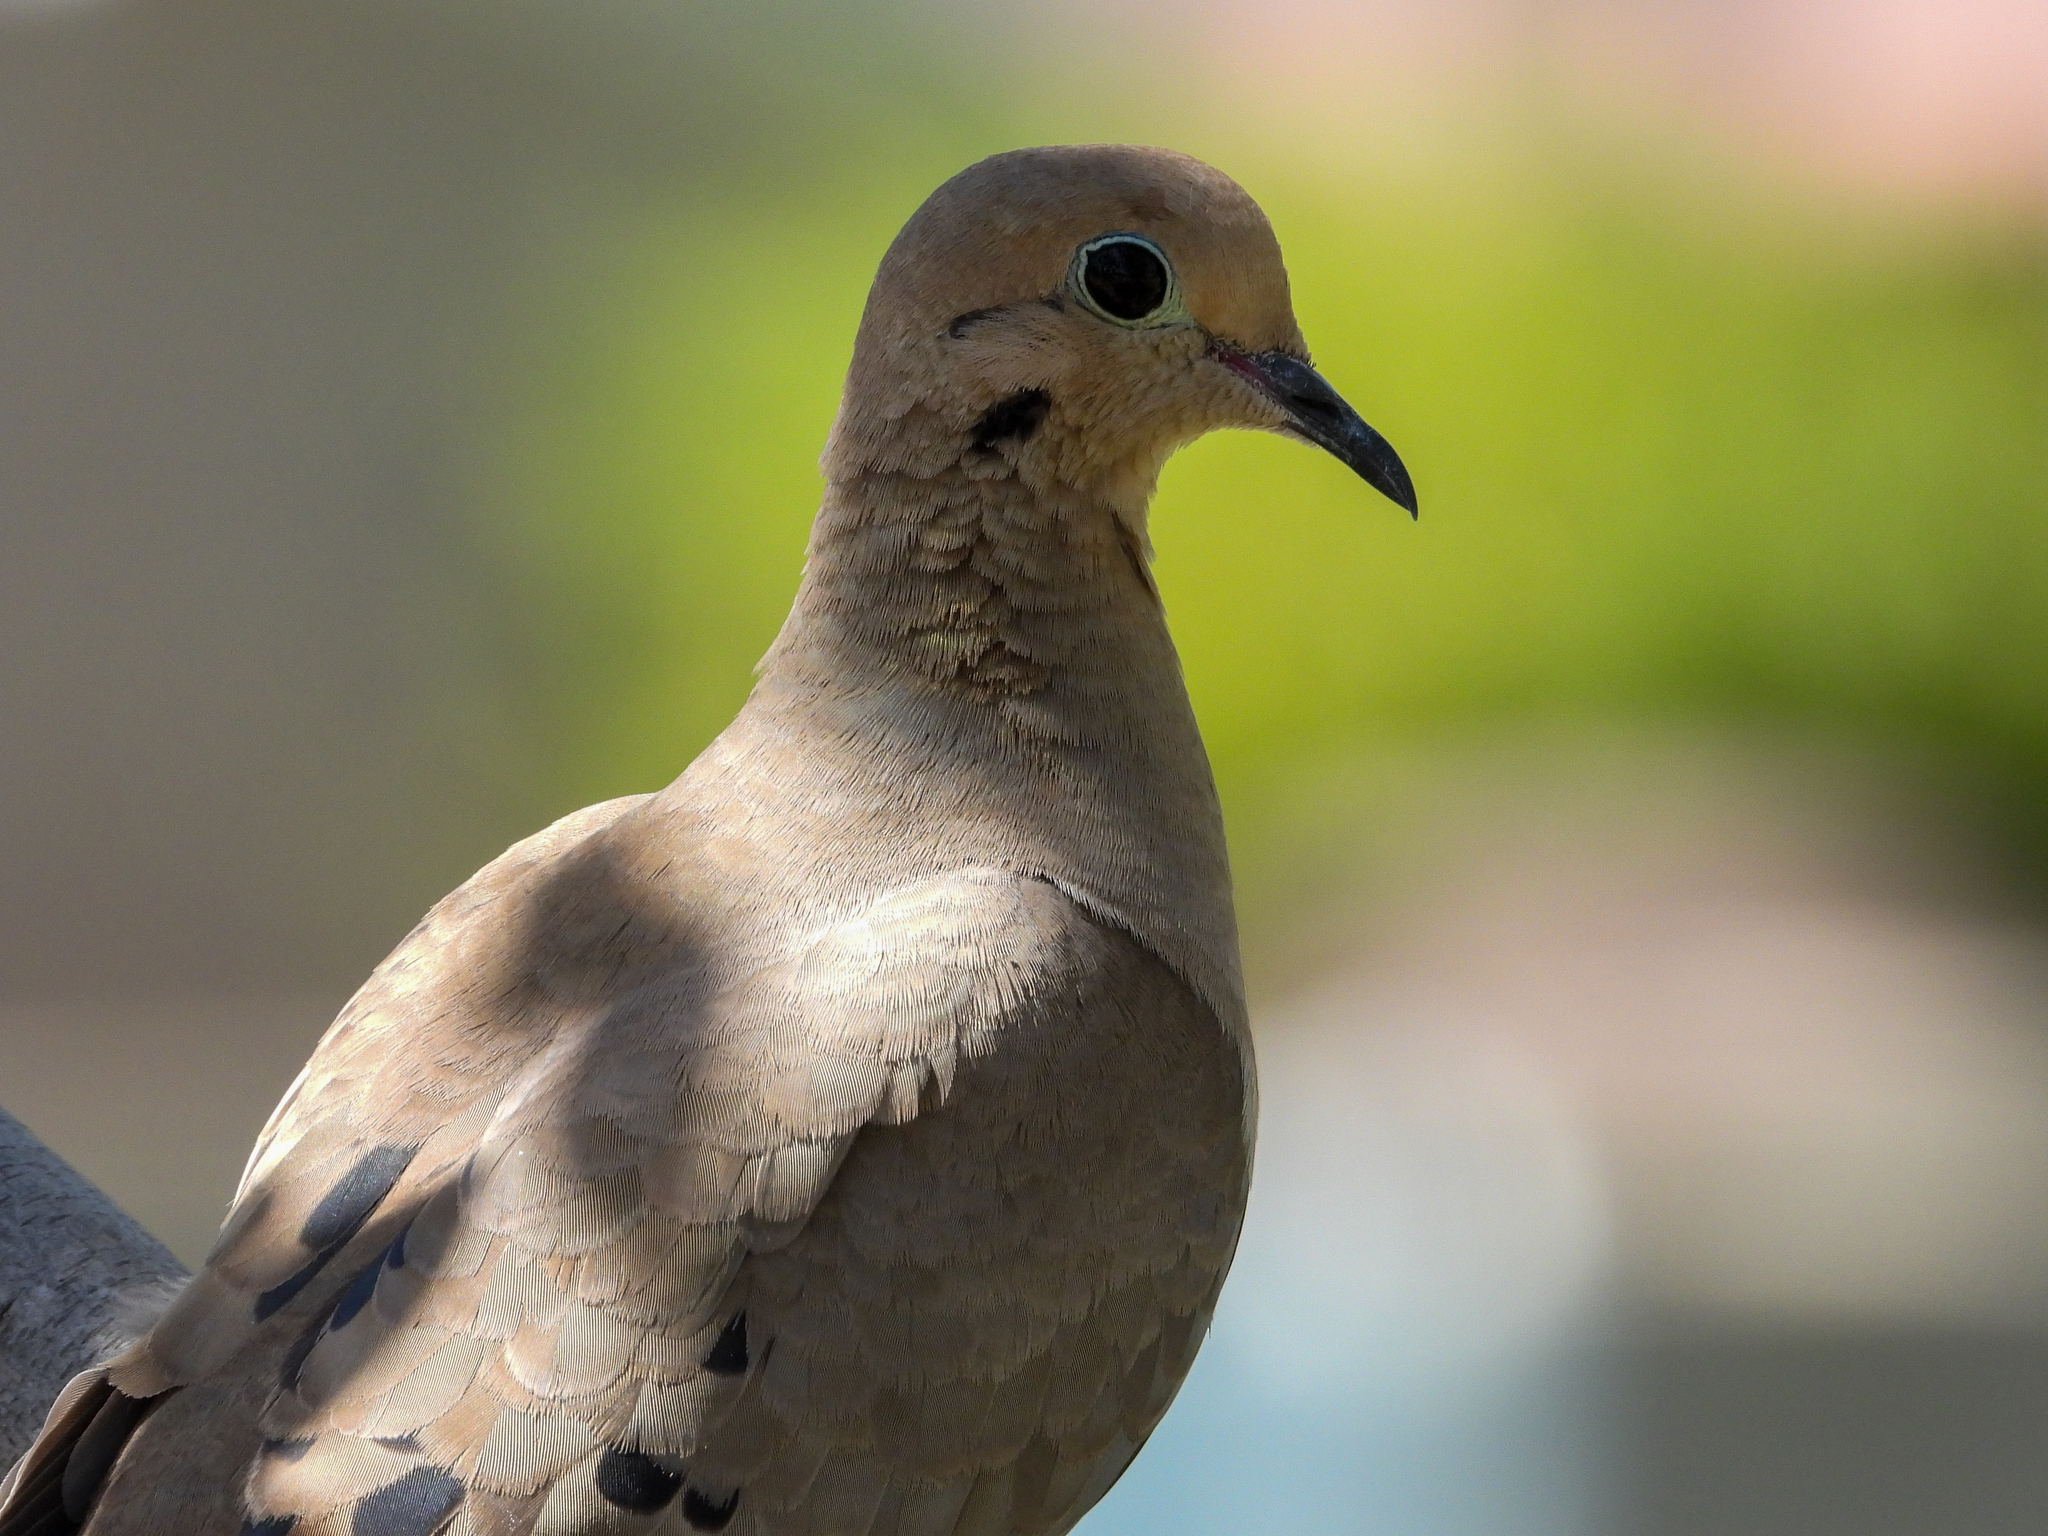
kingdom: Animalia
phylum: Chordata
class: Aves
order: Columbiformes
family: Columbidae
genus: Zenaida
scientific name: Zenaida macroura
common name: Mourning dove
